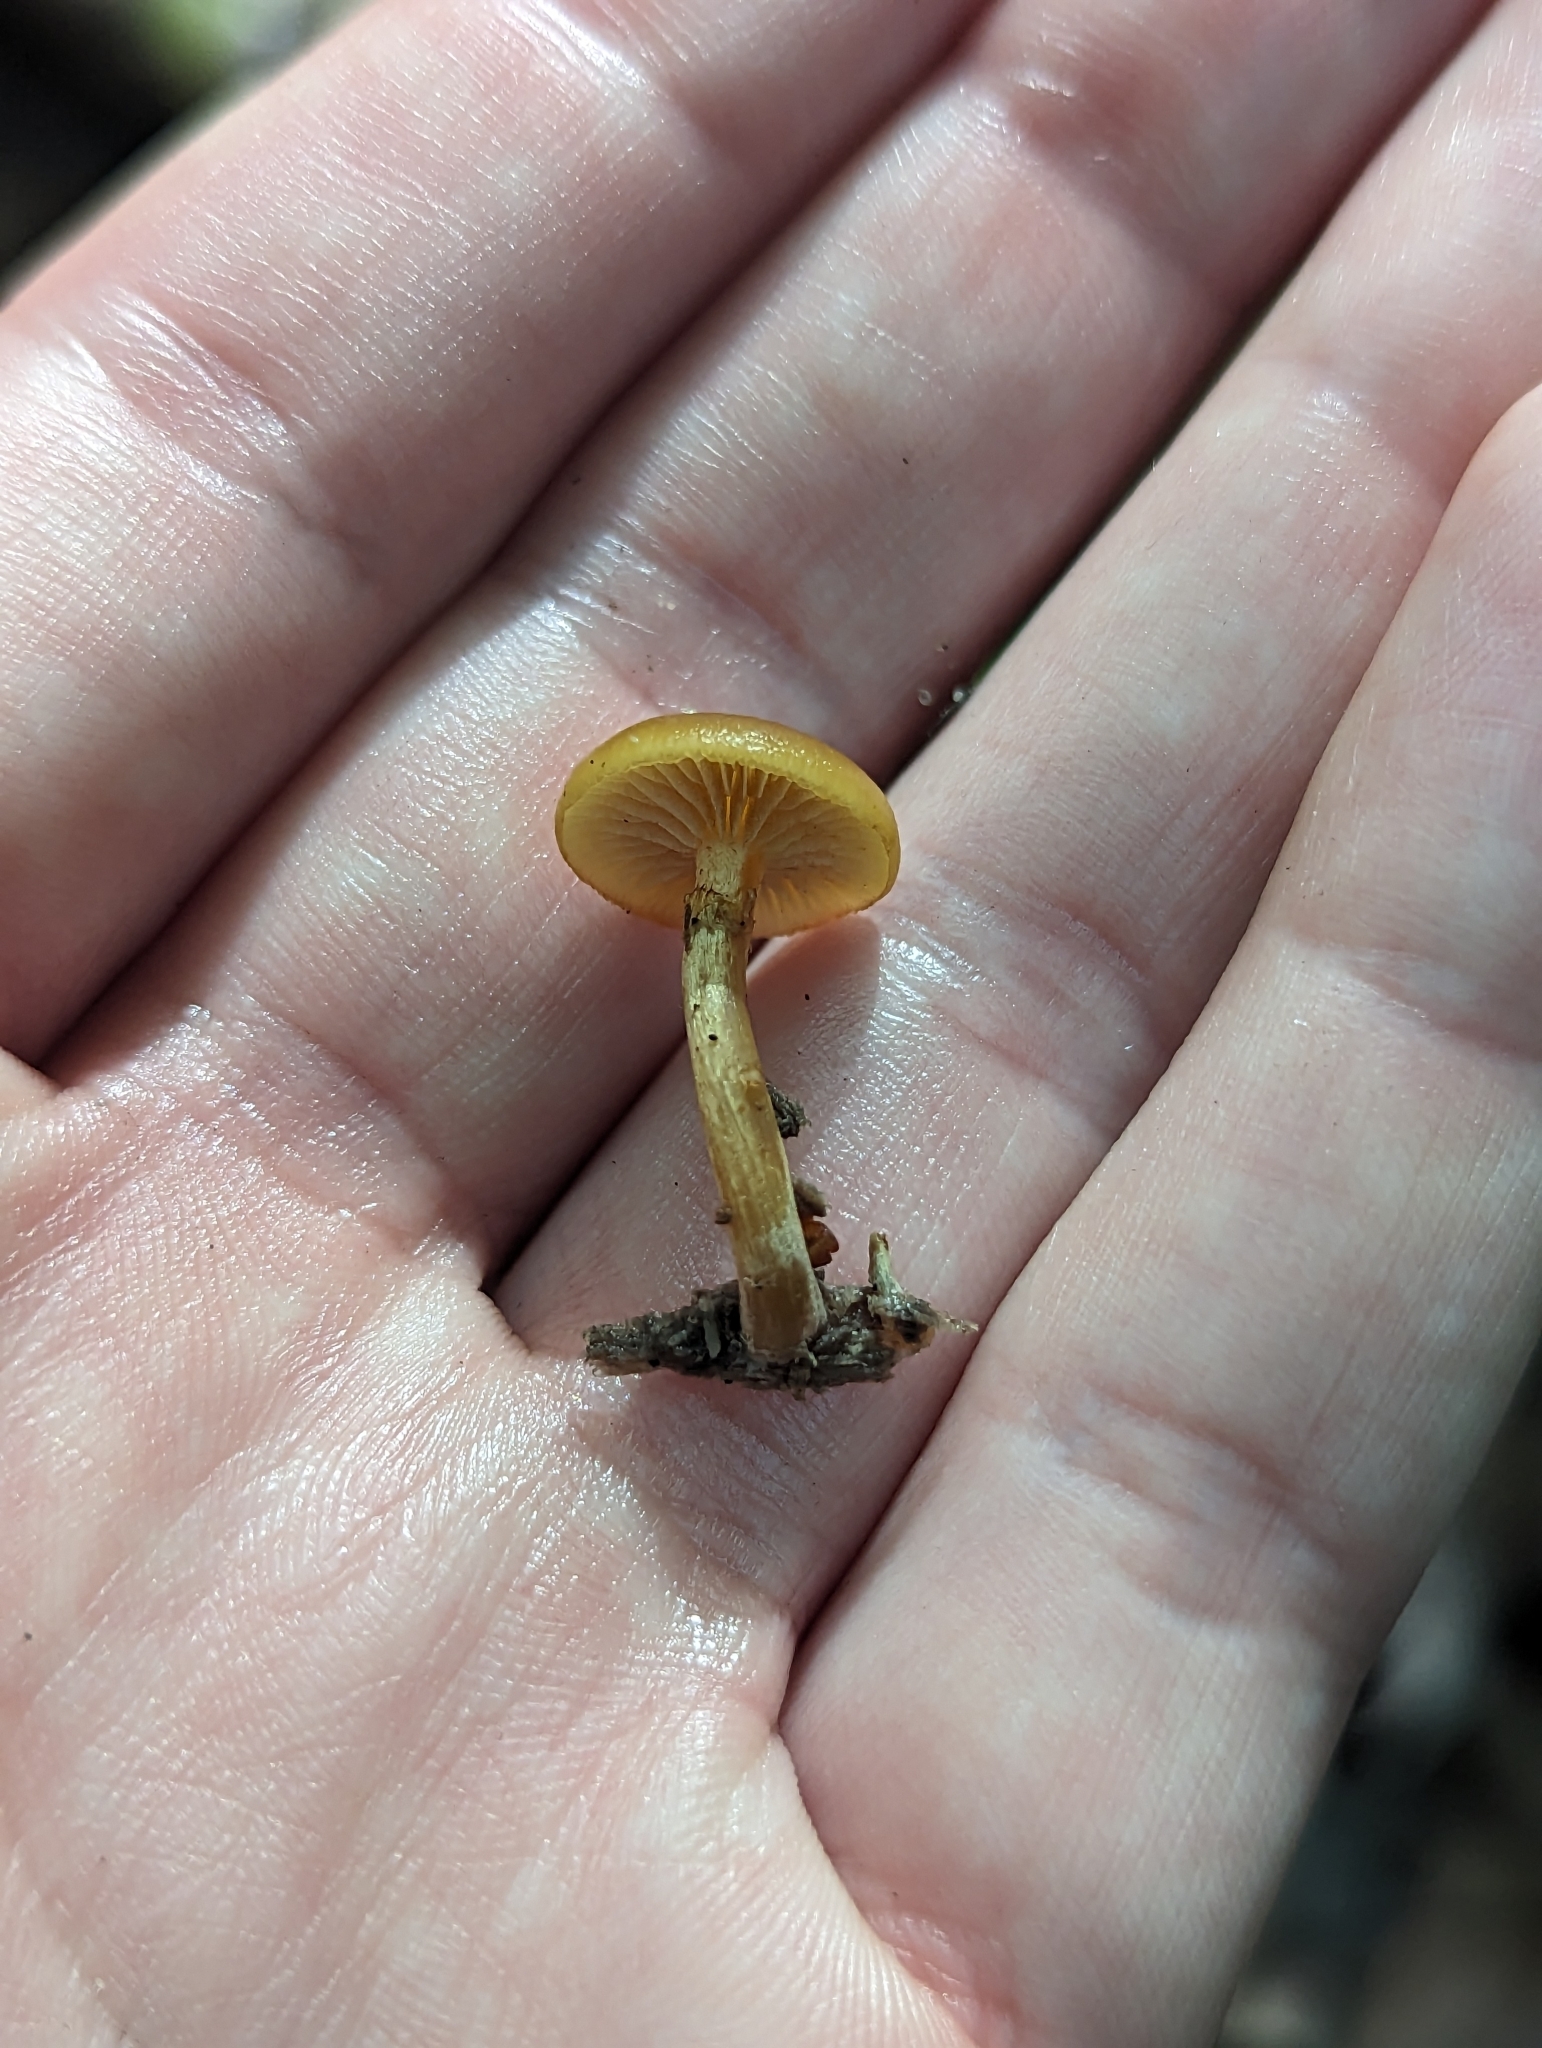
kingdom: Fungi
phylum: Basidiomycota
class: Agaricomycetes
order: Agaricales
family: Hymenogastraceae
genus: Galerina
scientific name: Galerina marginata
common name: Funeral bell
